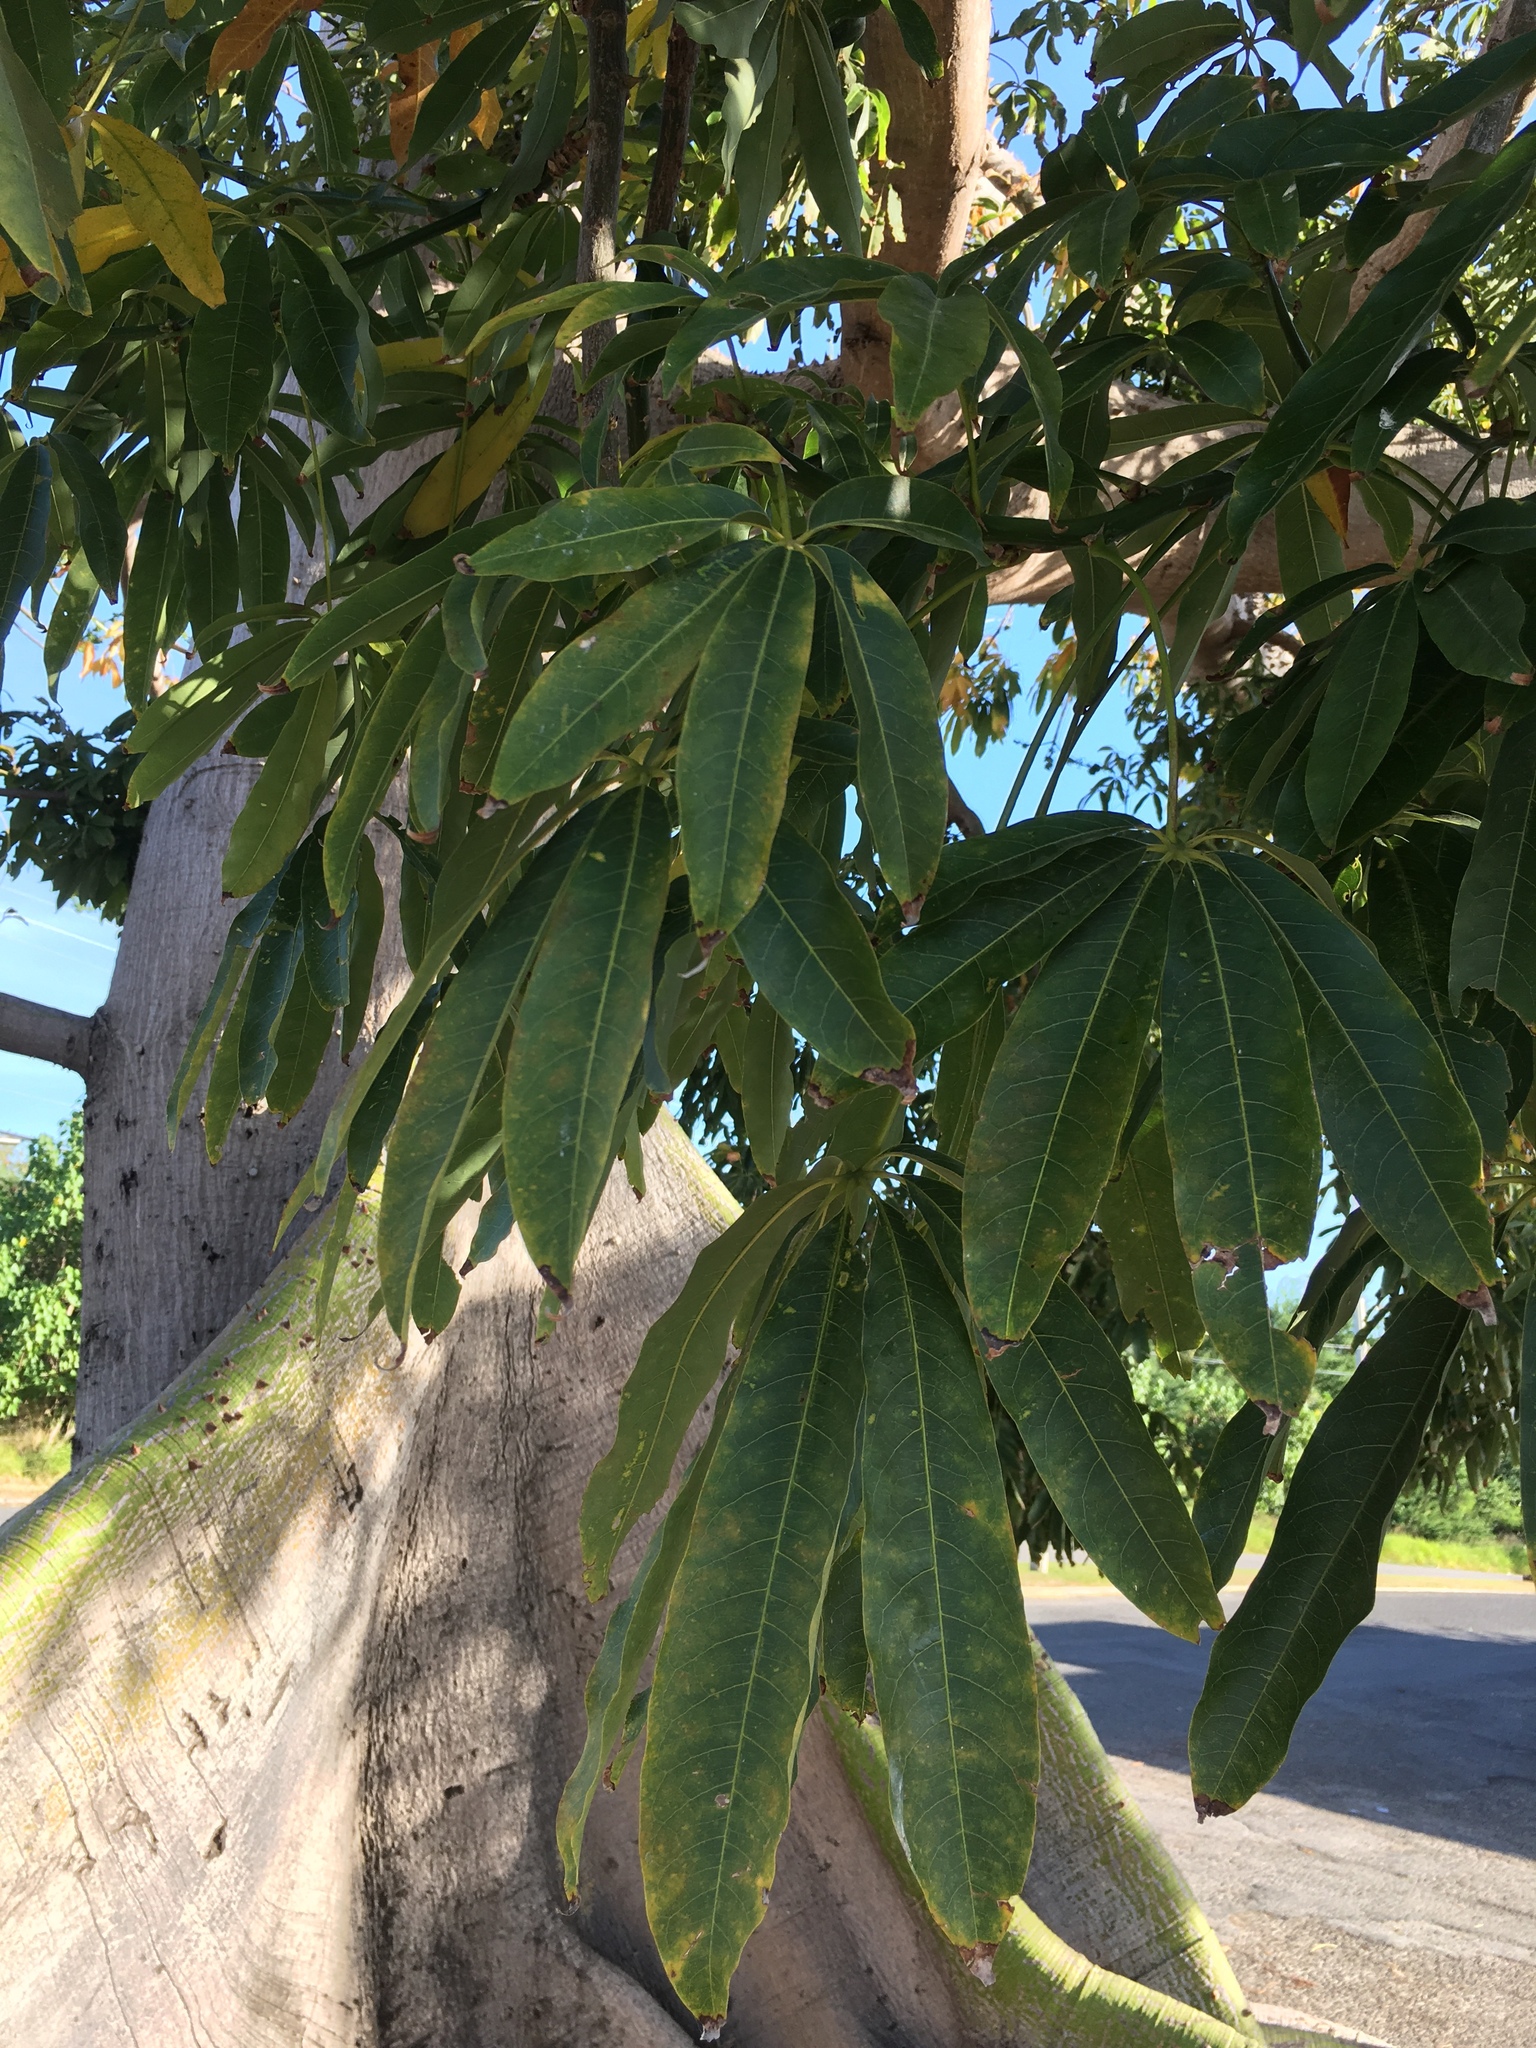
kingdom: Plantae
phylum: Tracheophyta
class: Magnoliopsida
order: Malvales
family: Malvaceae
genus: Ceiba
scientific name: Ceiba pentandra
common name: Kapok
